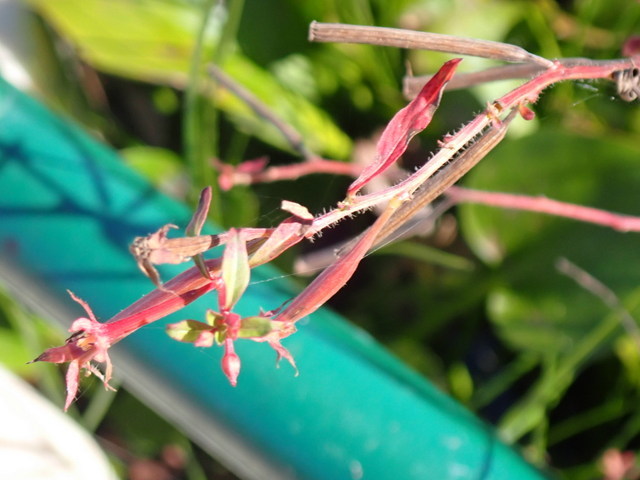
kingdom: Plantae
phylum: Tracheophyta
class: Magnoliopsida
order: Myrtales
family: Onagraceae
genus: Ludwigia
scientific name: Ludwigia leptocarpa
